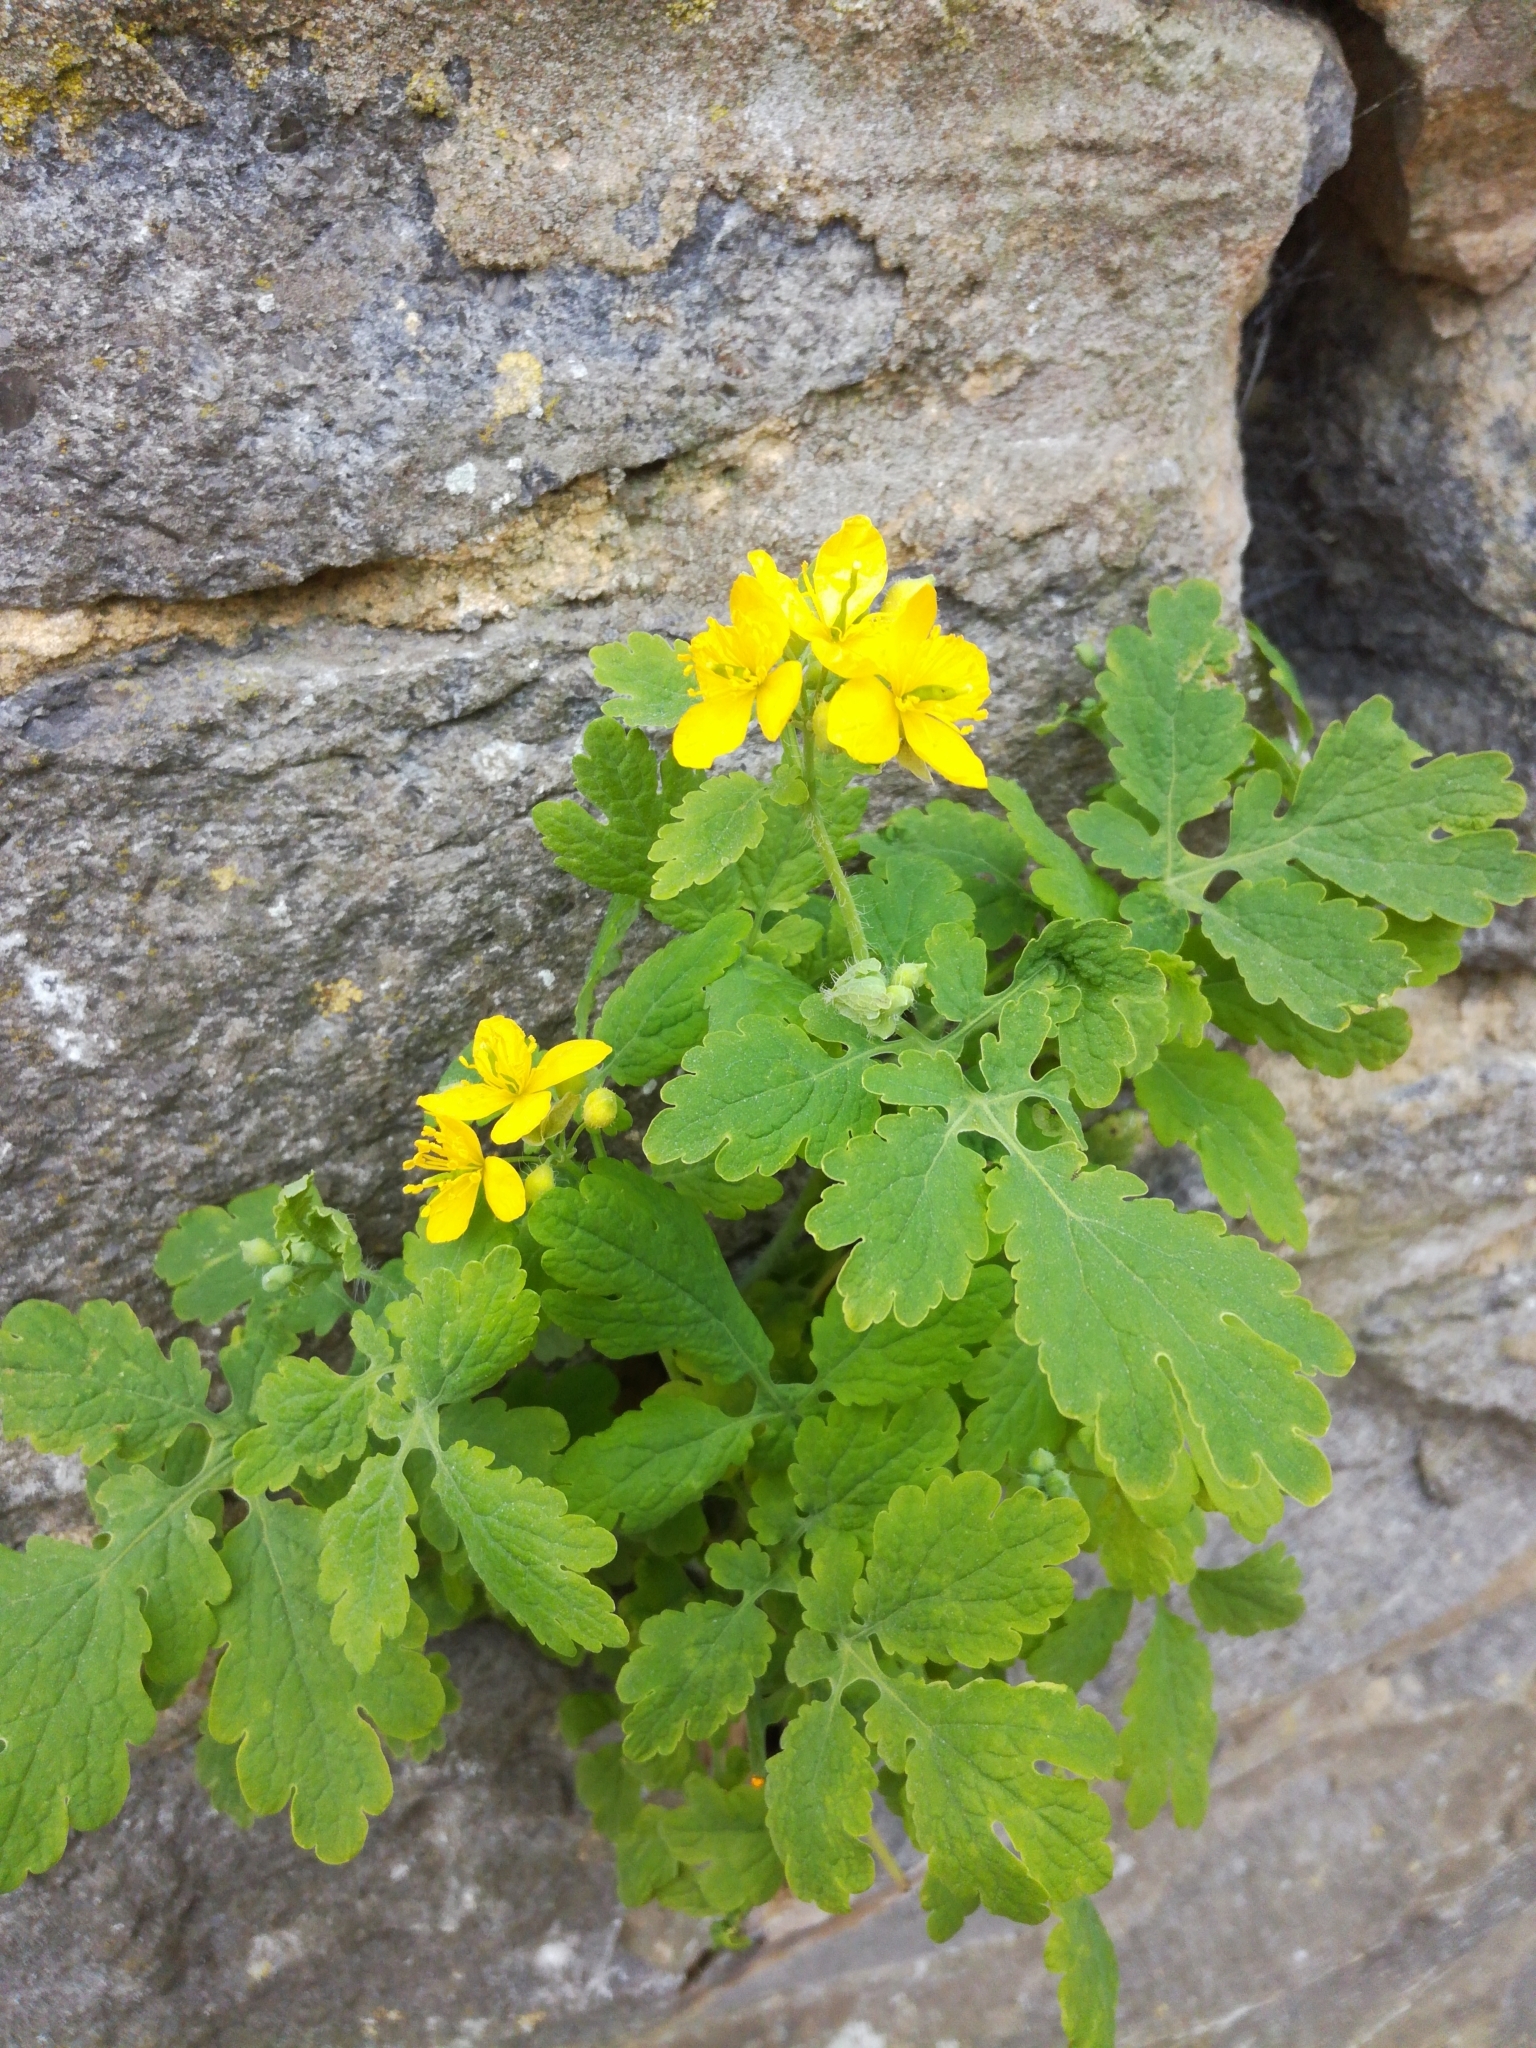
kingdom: Plantae
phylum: Tracheophyta
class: Magnoliopsida
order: Ranunculales
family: Papaveraceae
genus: Chelidonium
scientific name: Chelidonium majus
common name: Greater celandine
